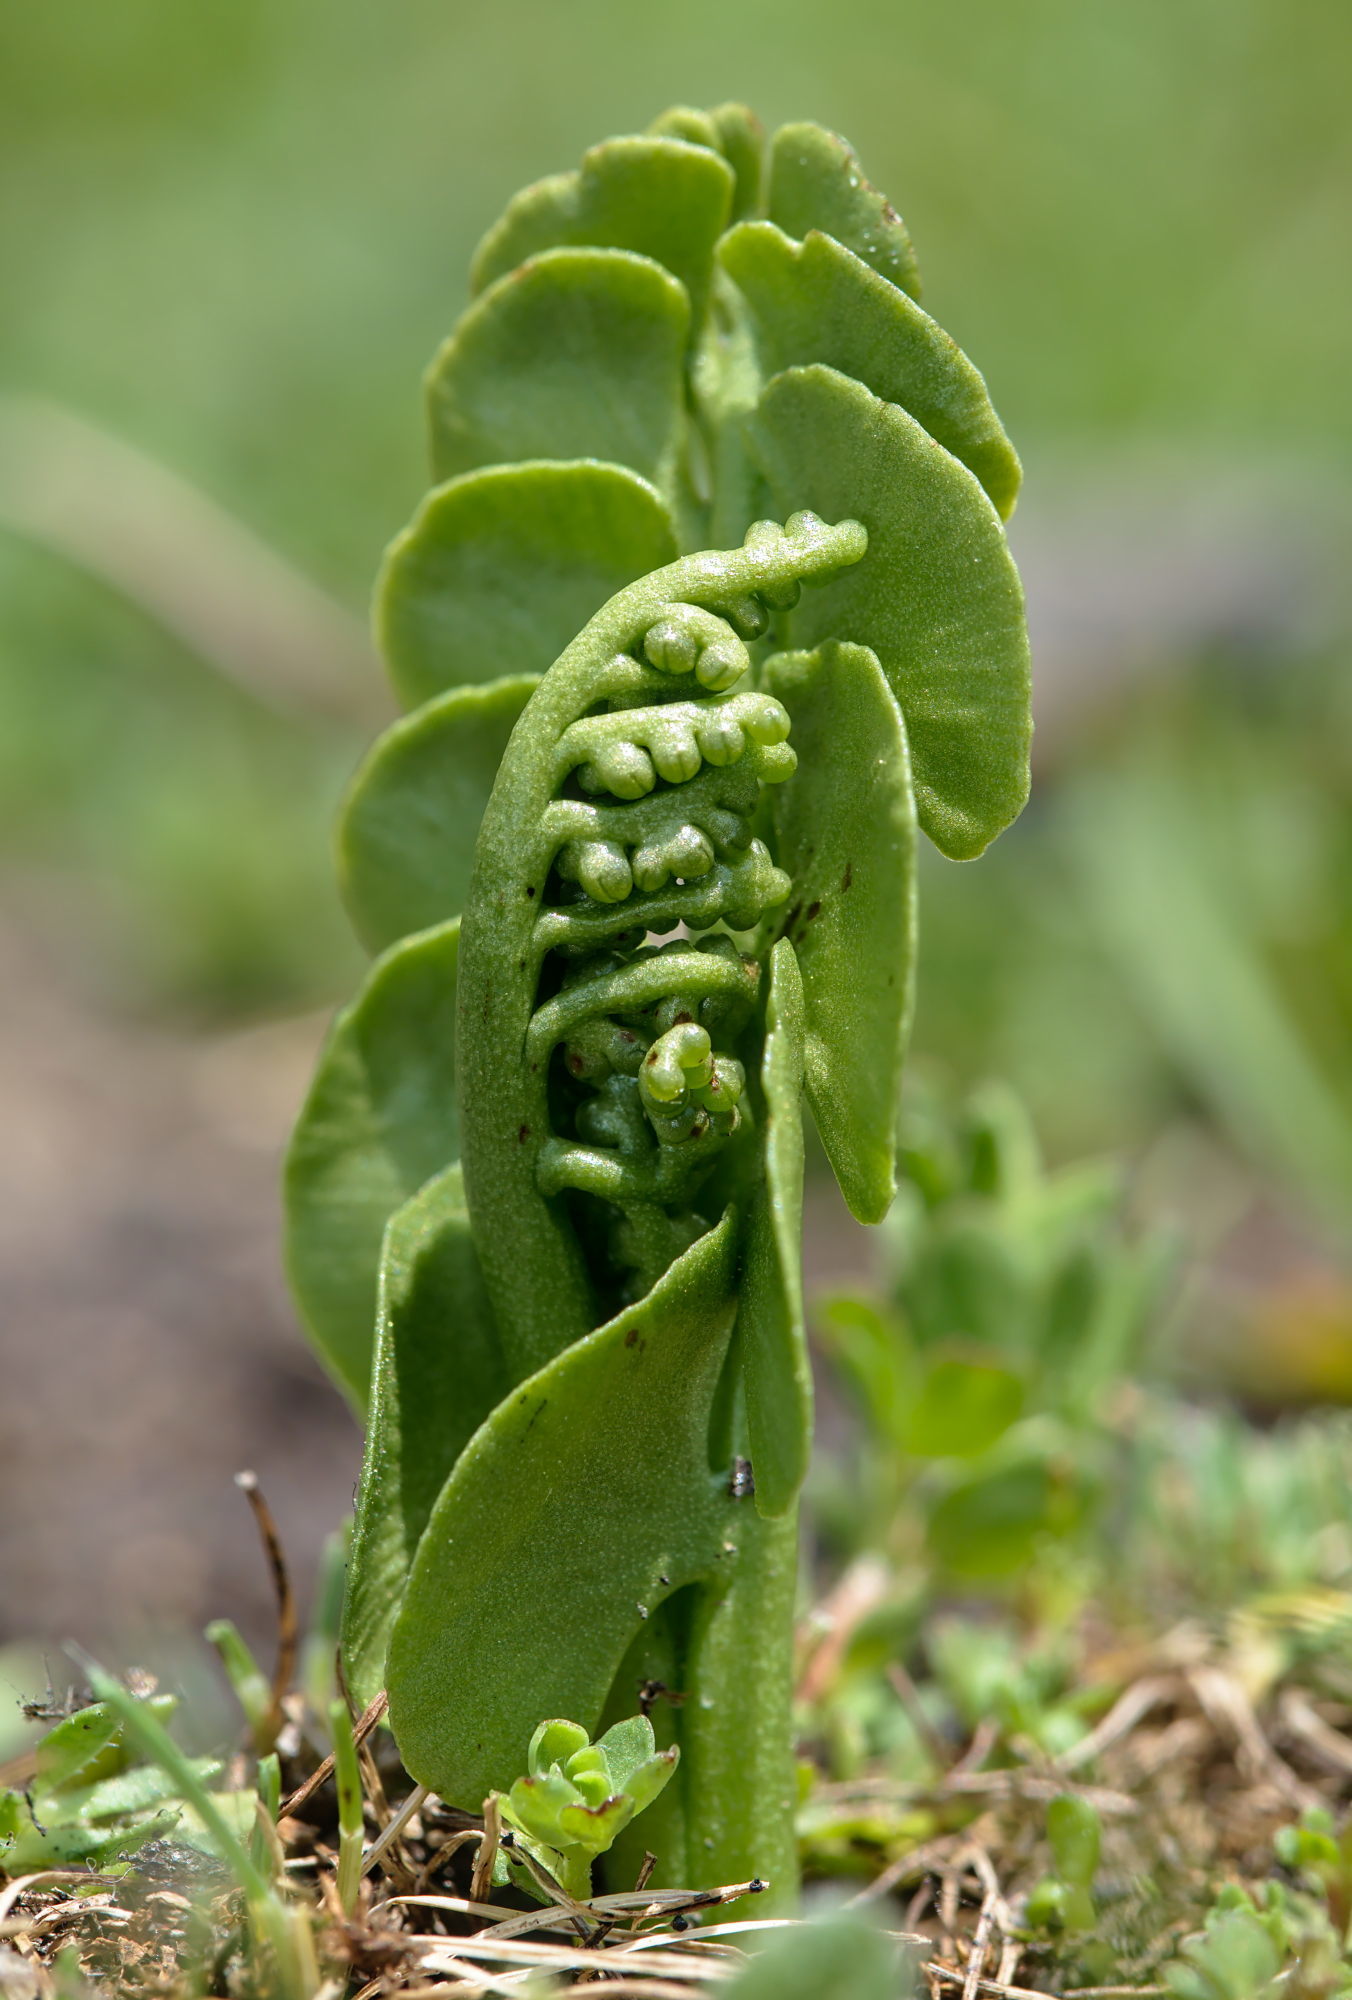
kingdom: Plantae
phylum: Tracheophyta
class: Polypodiopsida
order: Ophioglossales
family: Ophioglossaceae
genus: Botrychium
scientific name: Botrychium lunaria
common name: Moonwort
